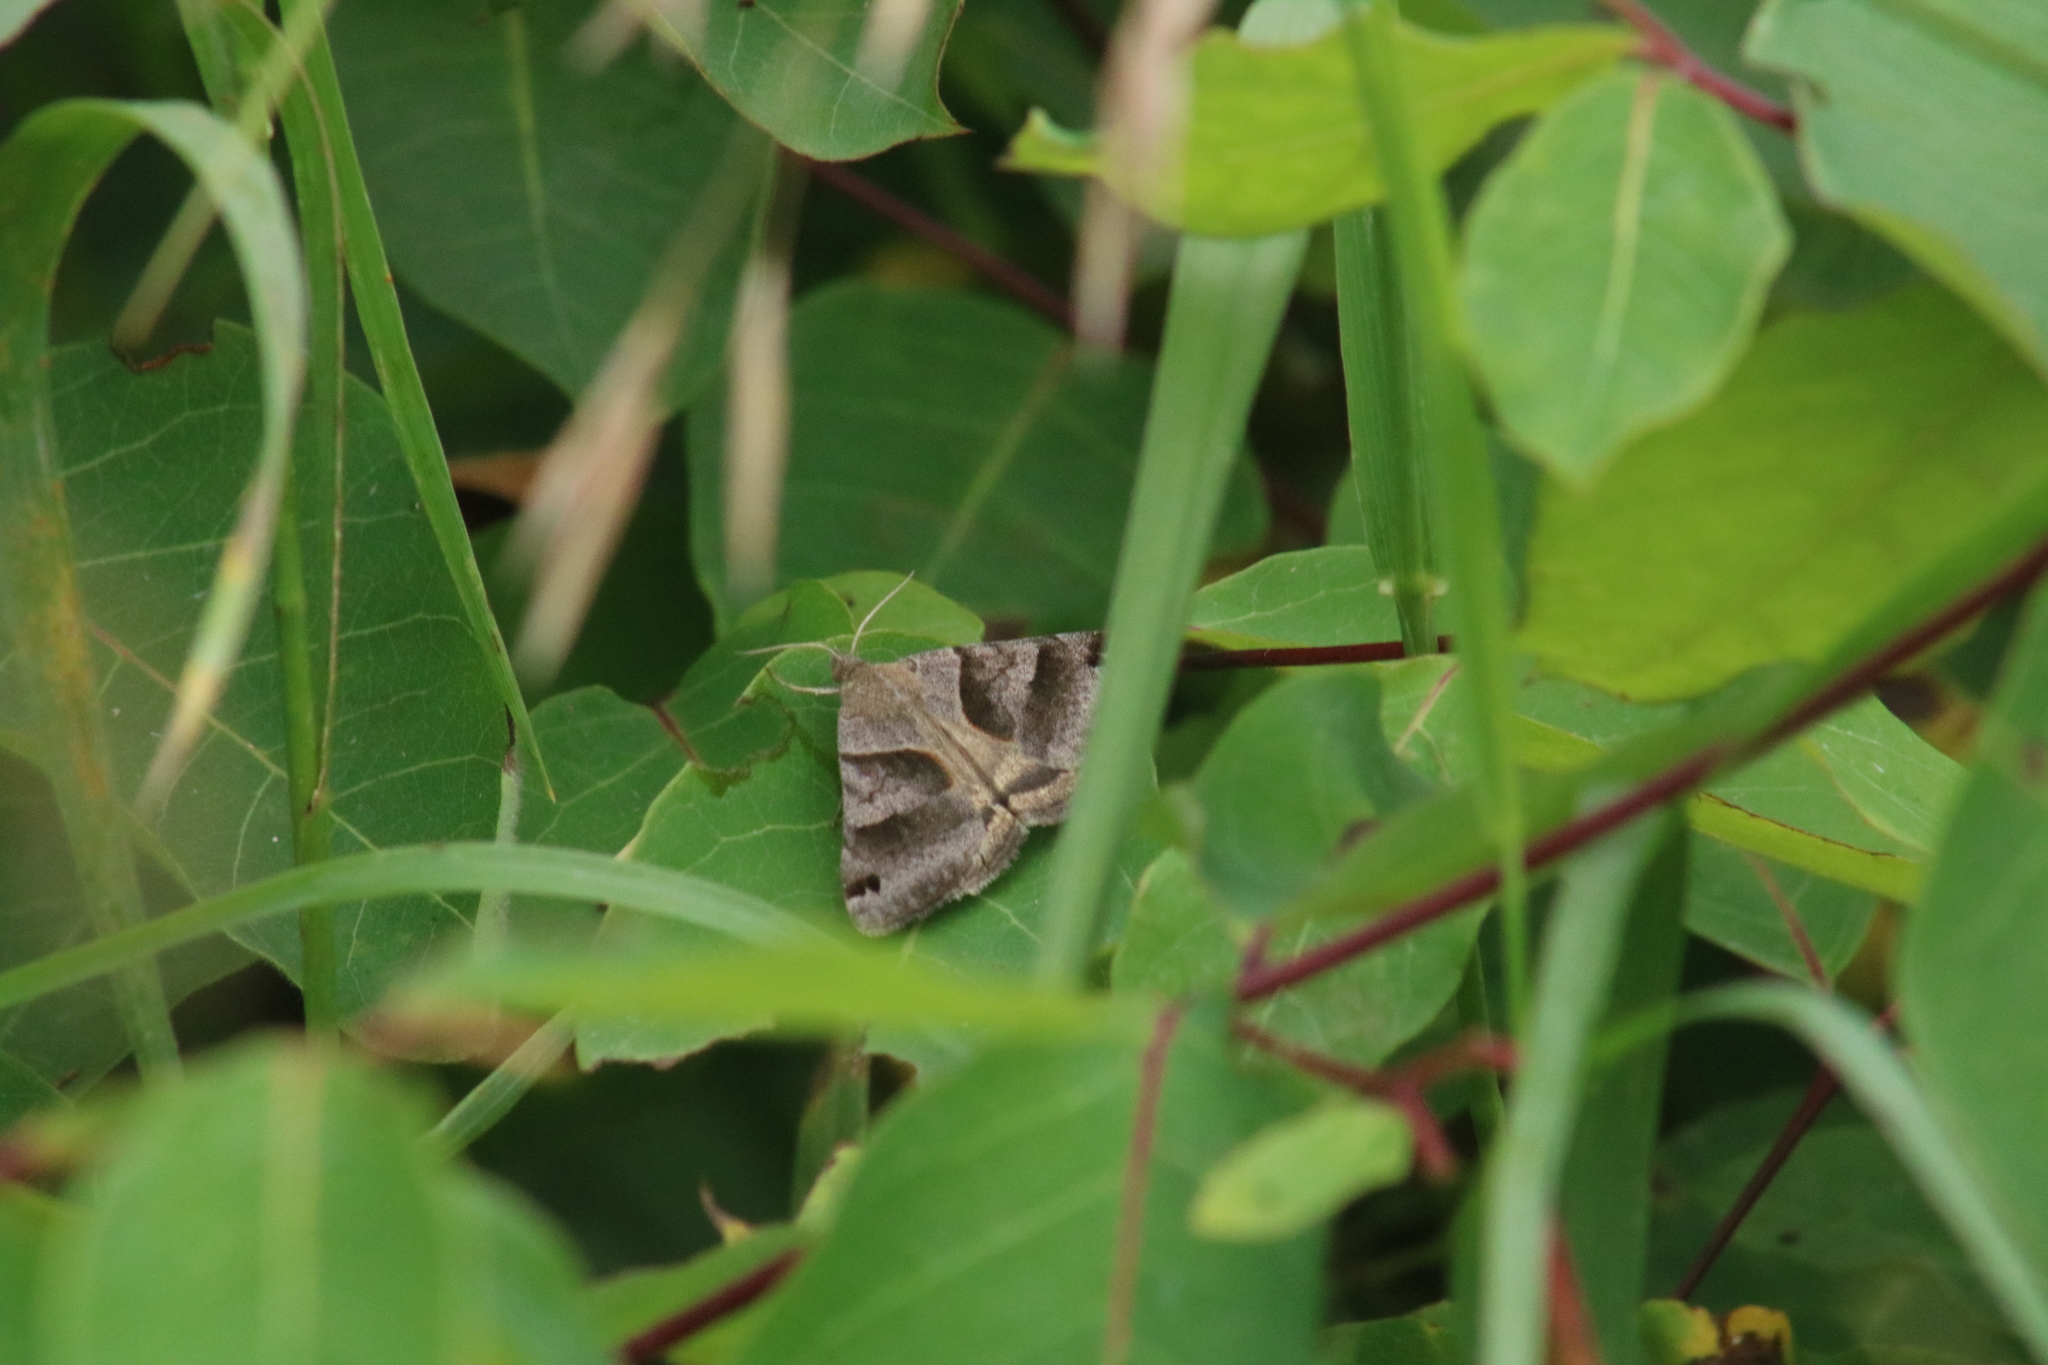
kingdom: Animalia
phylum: Arthropoda
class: Insecta
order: Lepidoptera
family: Erebidae
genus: Caenurgina
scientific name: Caenurgina erechtea
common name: Forage looper moth
